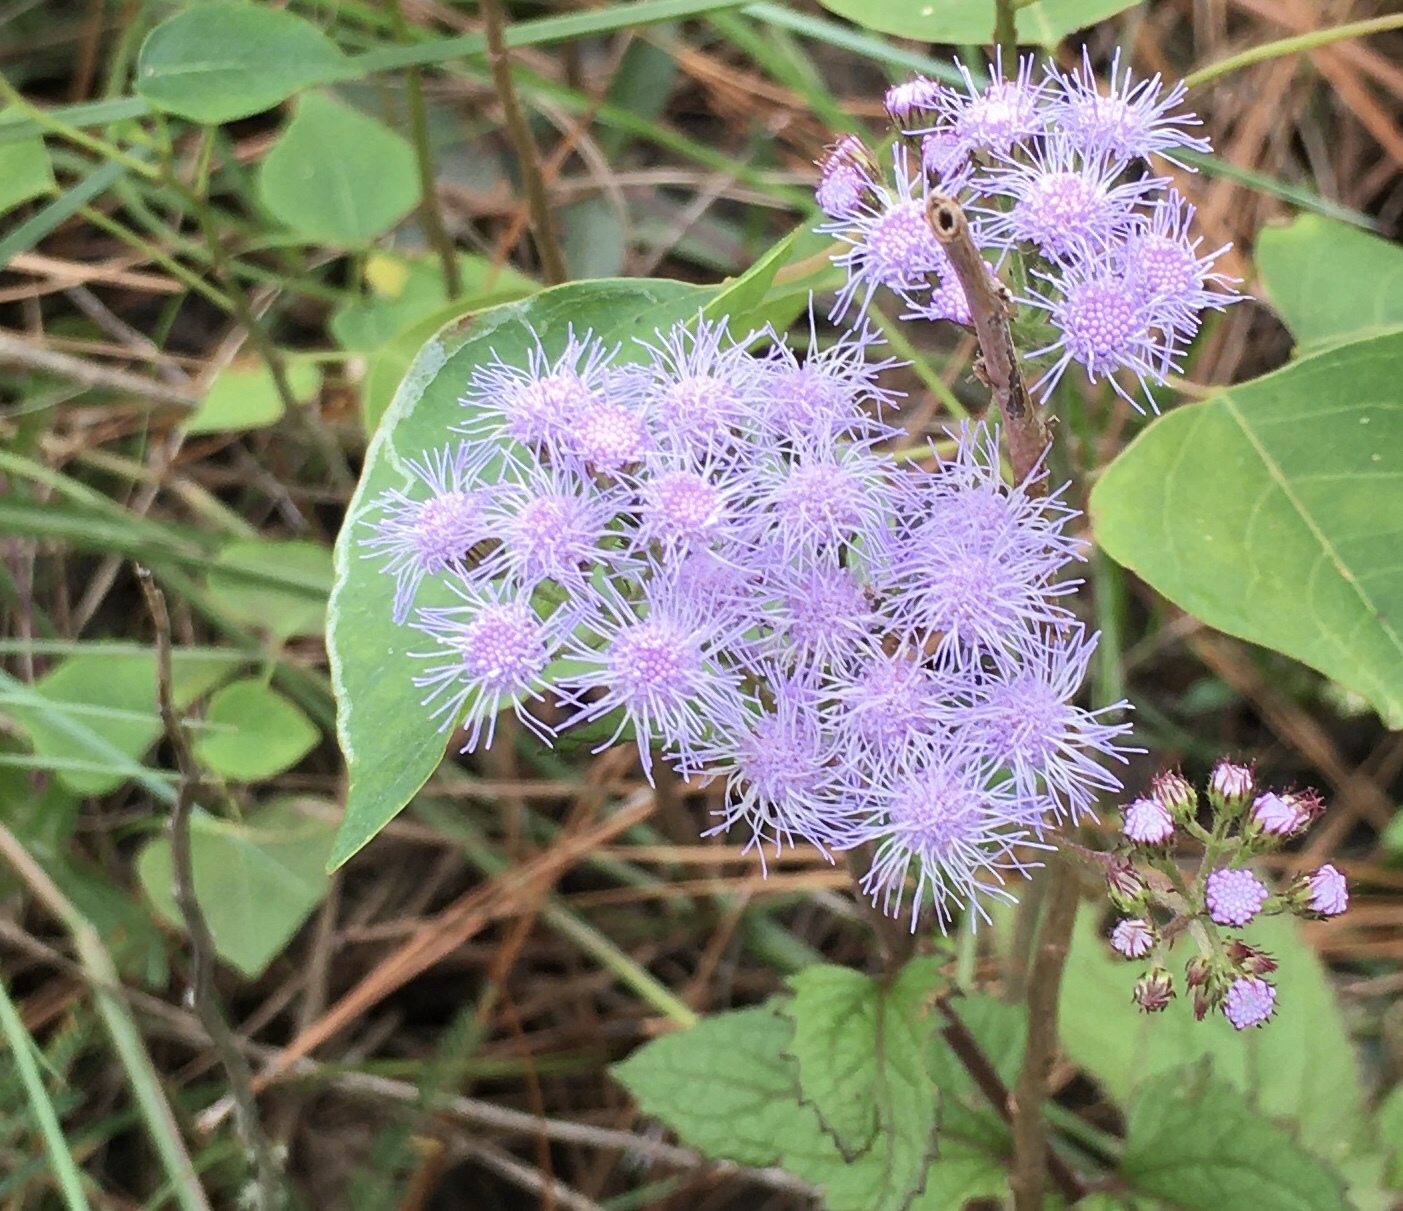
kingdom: Plantae
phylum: Tracheophyta
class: Magnoliopsida
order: Asterales
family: Asteraceae
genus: Conoclinium
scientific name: Conoclinium coelestinum
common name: Blue mistflower
